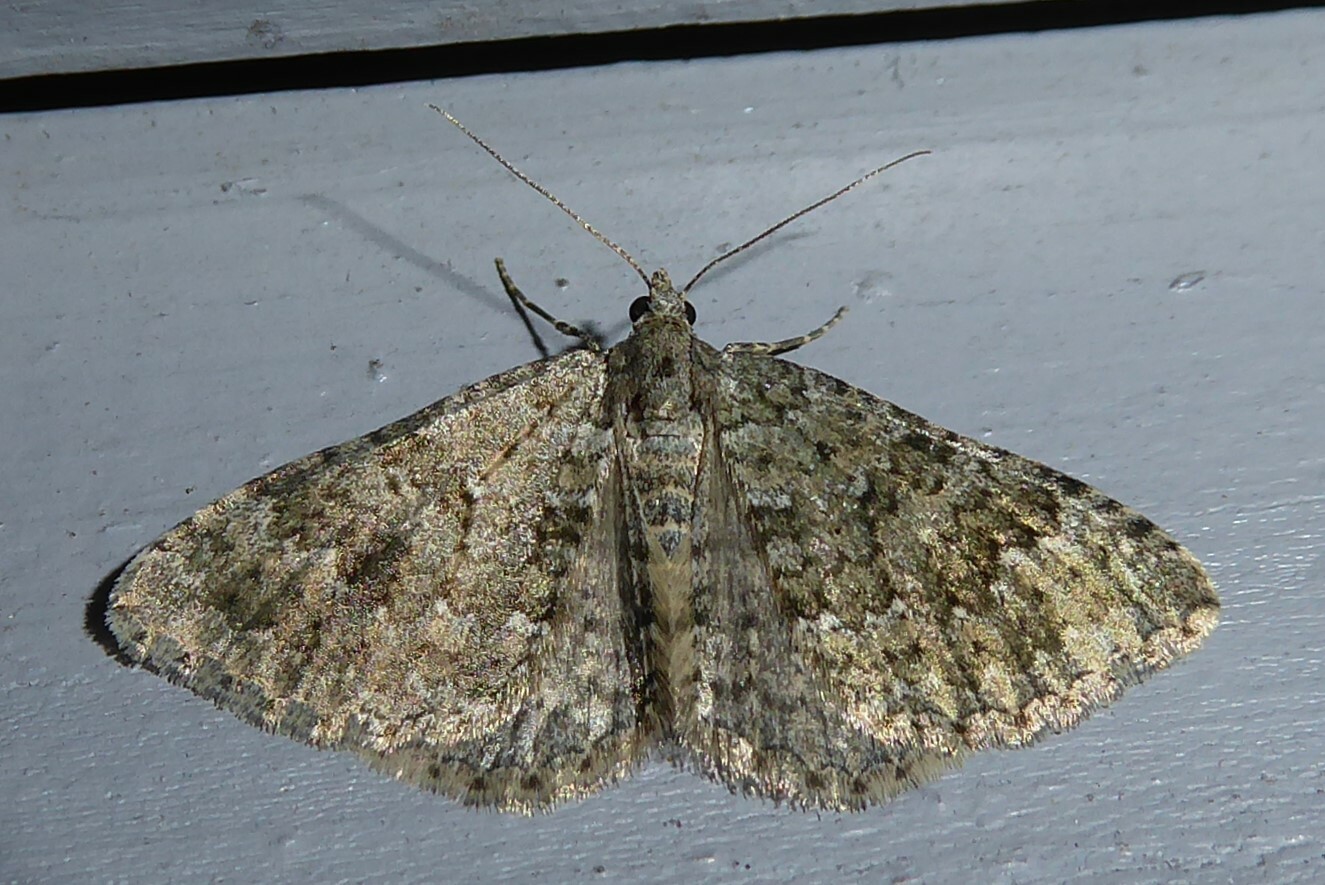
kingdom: Animalia
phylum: Arthropoda
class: Insecta
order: Lepidoptera
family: Geometridae
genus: Helastia
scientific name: Helastia corcularia
